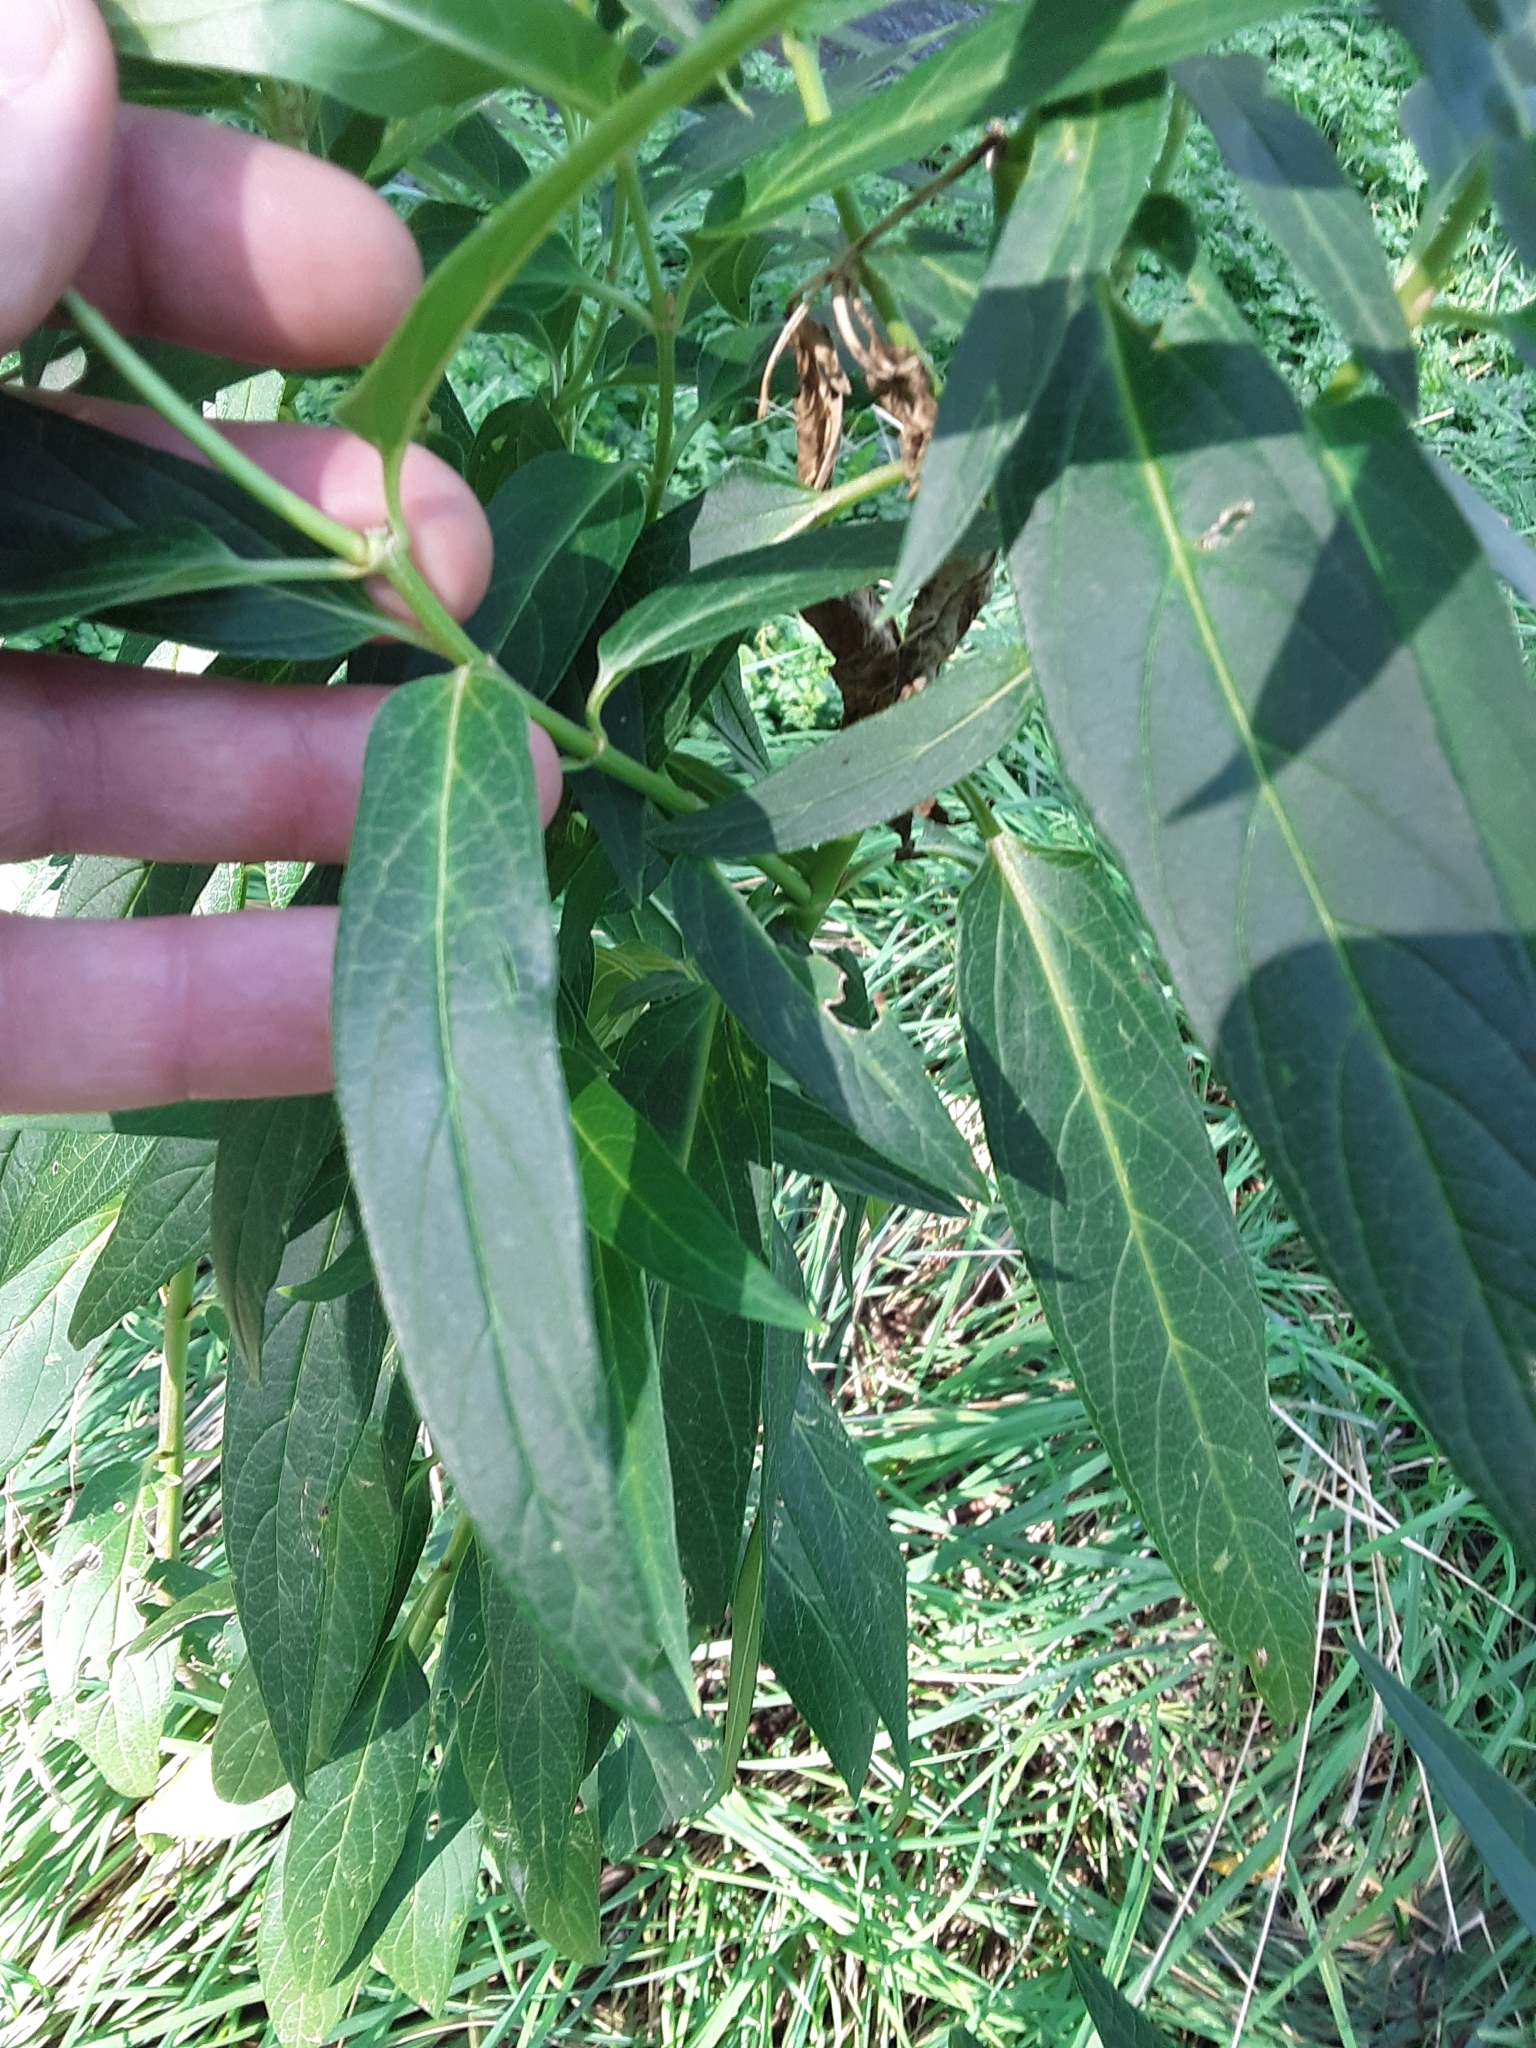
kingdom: Plantae
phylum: Tracheophyta
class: Magnoliopsida
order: Myrtales
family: Onagraceae
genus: Chamaenerion
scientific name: Chamaenerion angustifolium
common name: Fireweed
